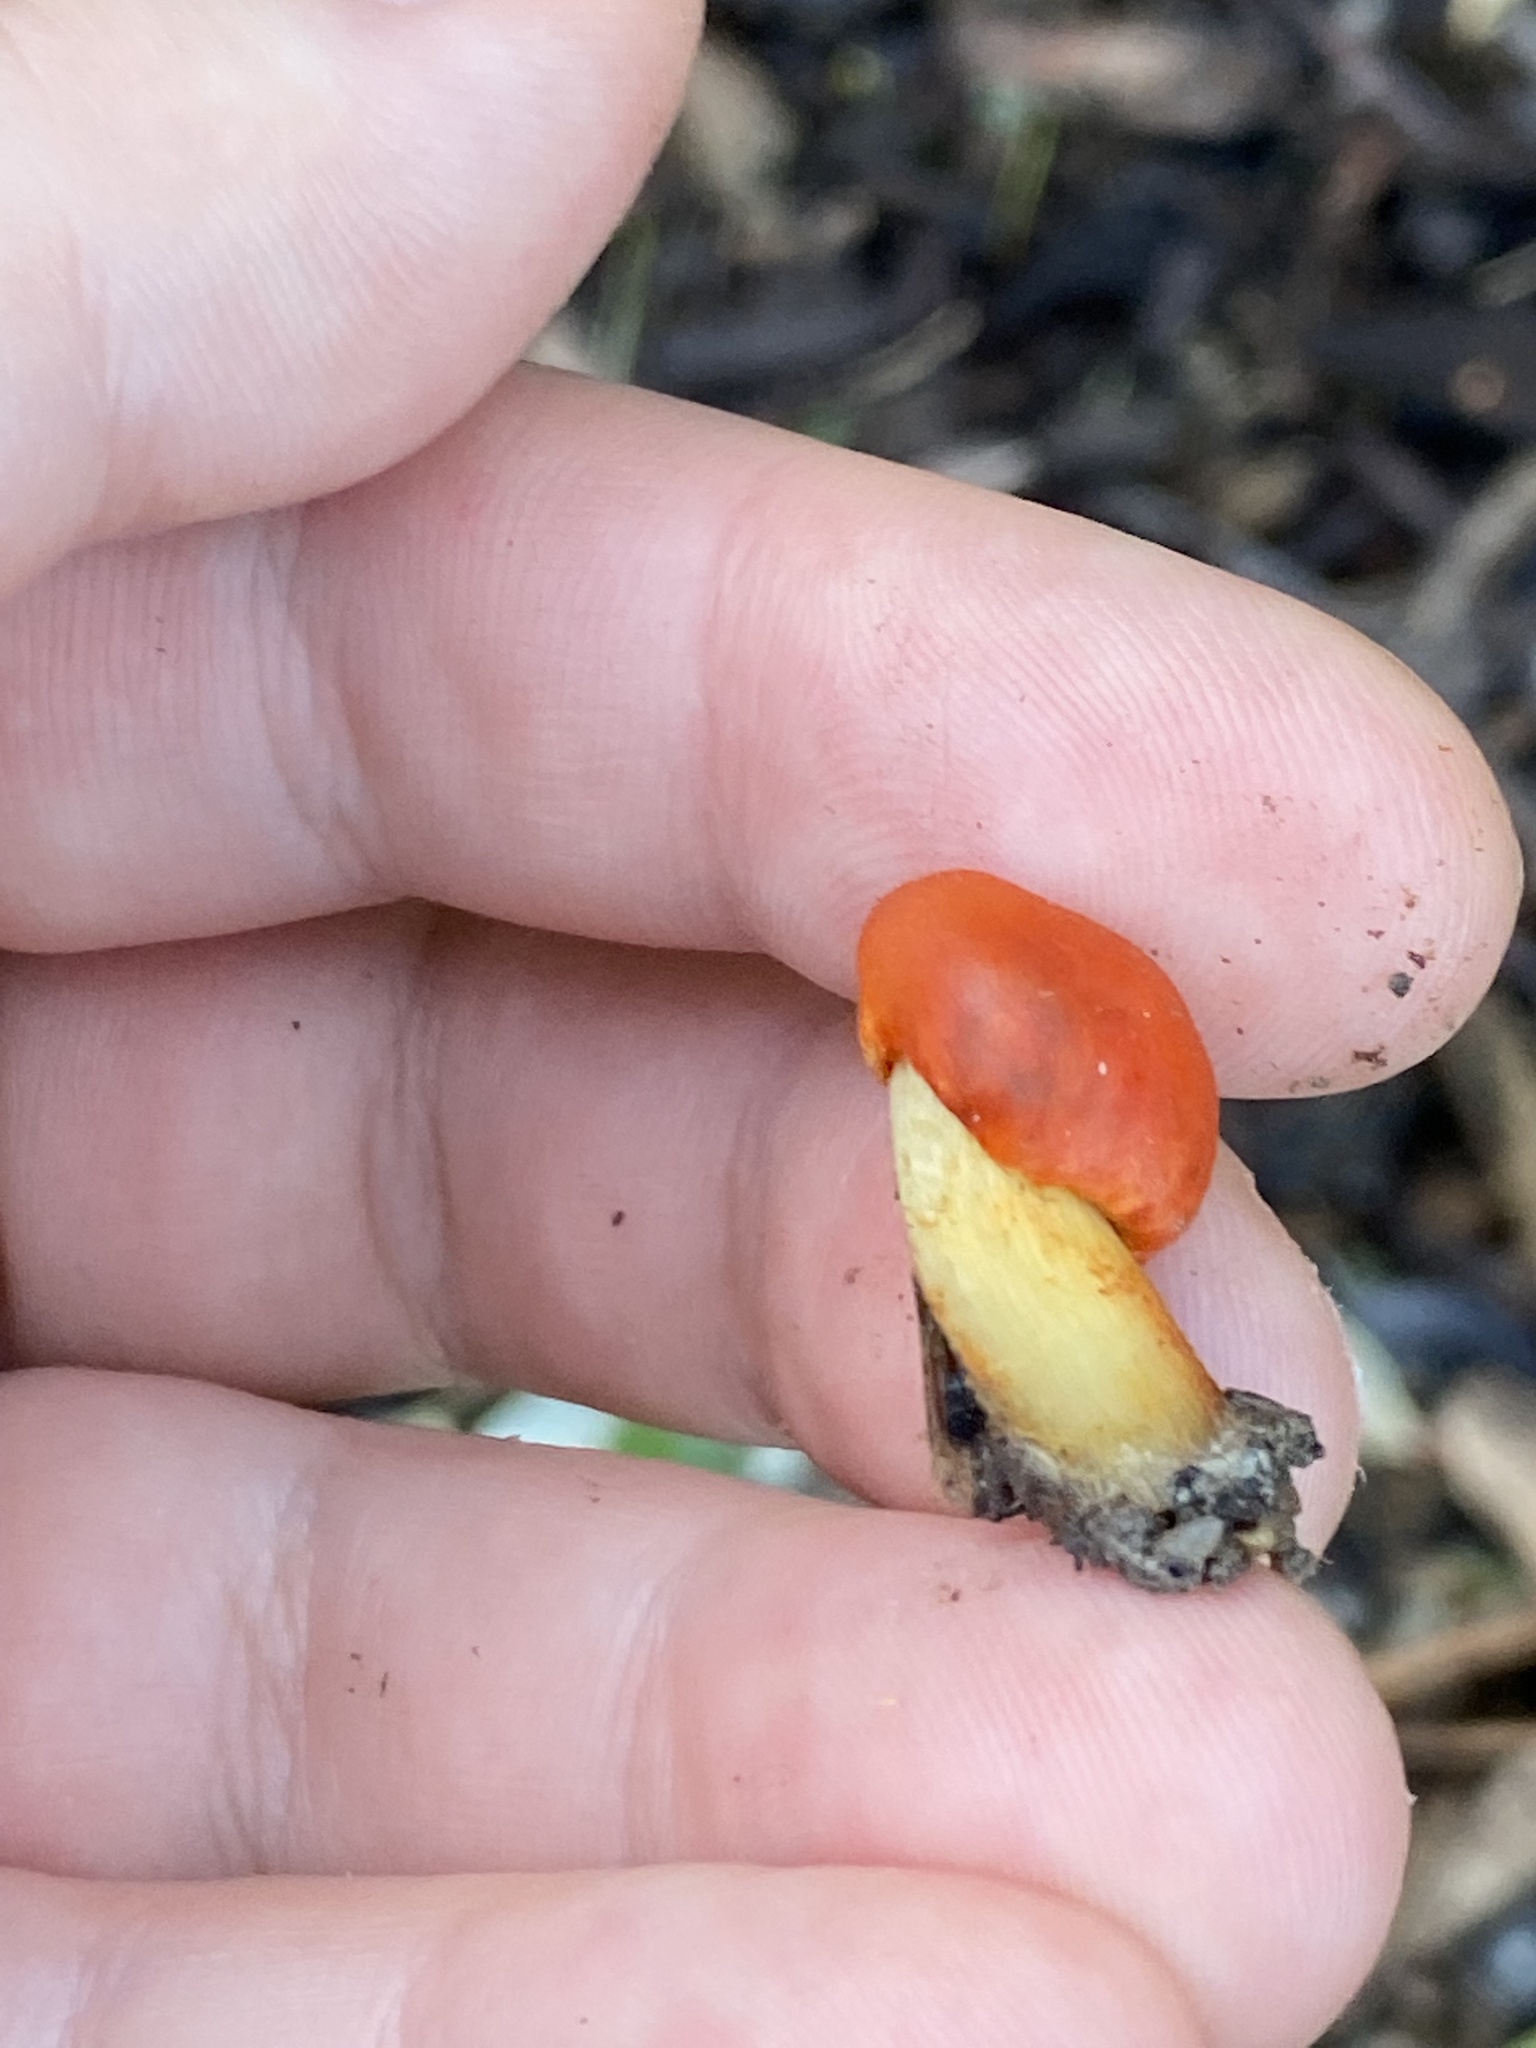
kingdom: Fungi
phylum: Basidiomycota
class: Agaricomycetes
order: Agaricales
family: Strophariaceae
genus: Leratiomyces
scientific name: Leratiomyces erythrocephalus
